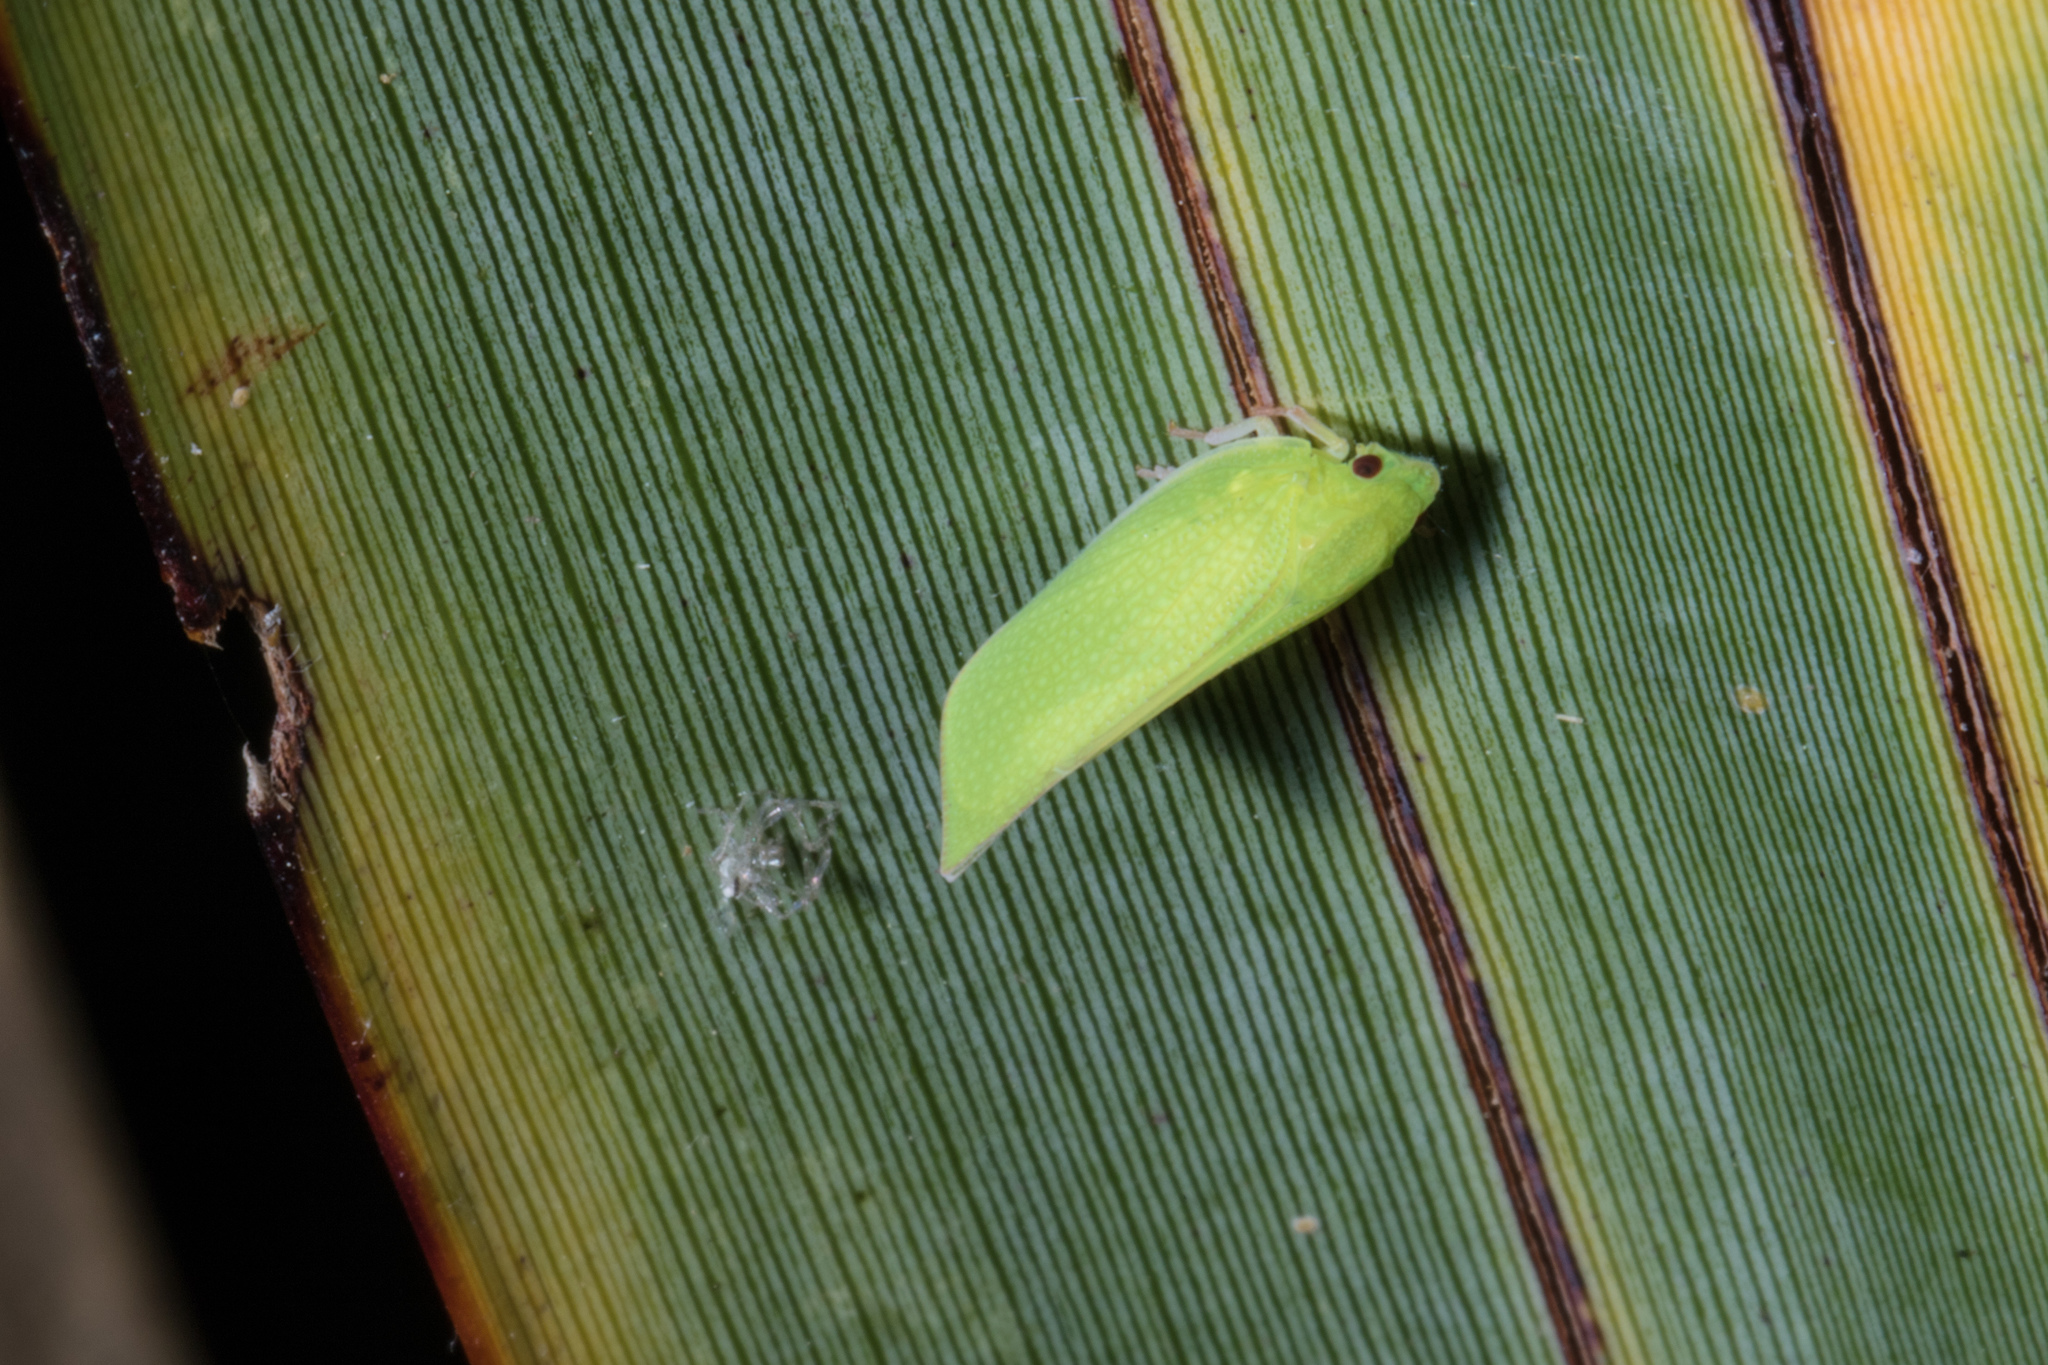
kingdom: Animalia
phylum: Arthropoda
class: Insecta
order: Hemiptera
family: Flatidae
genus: Siphanta
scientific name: Siphanta acuta
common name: Torpedo bug
